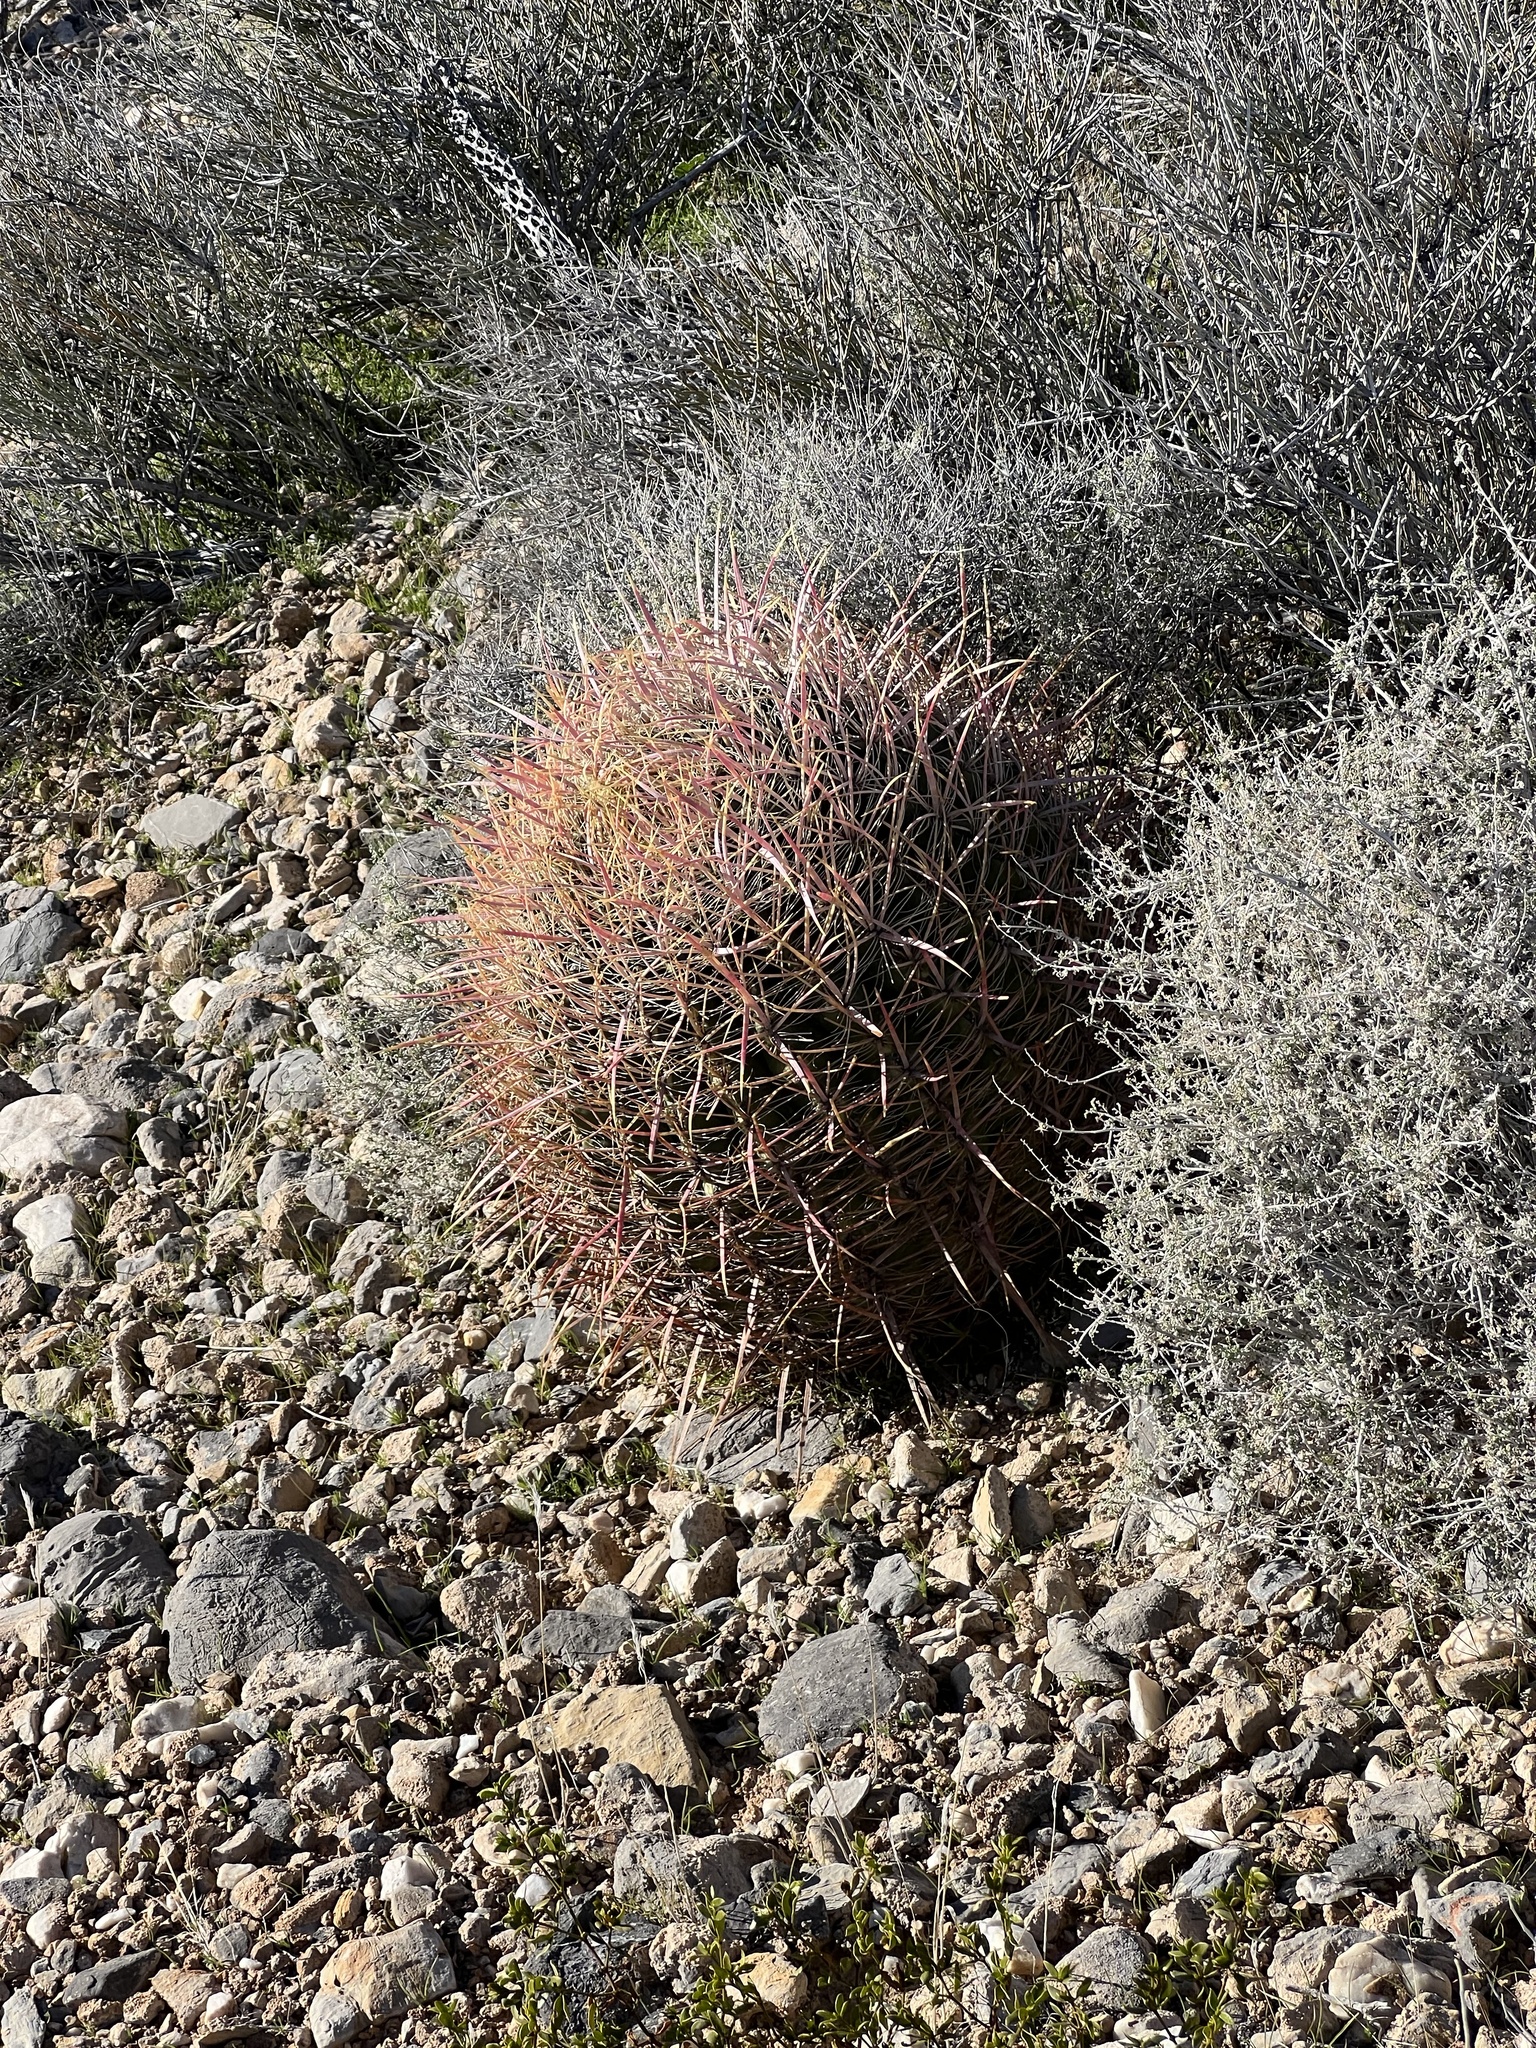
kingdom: Plantae
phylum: Tracheophyta
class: Magnoliopsida
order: Caryophyllales
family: Cactaceae
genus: Ferocactus
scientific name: Ferocactus cylindraceus
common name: California barrel cactus
